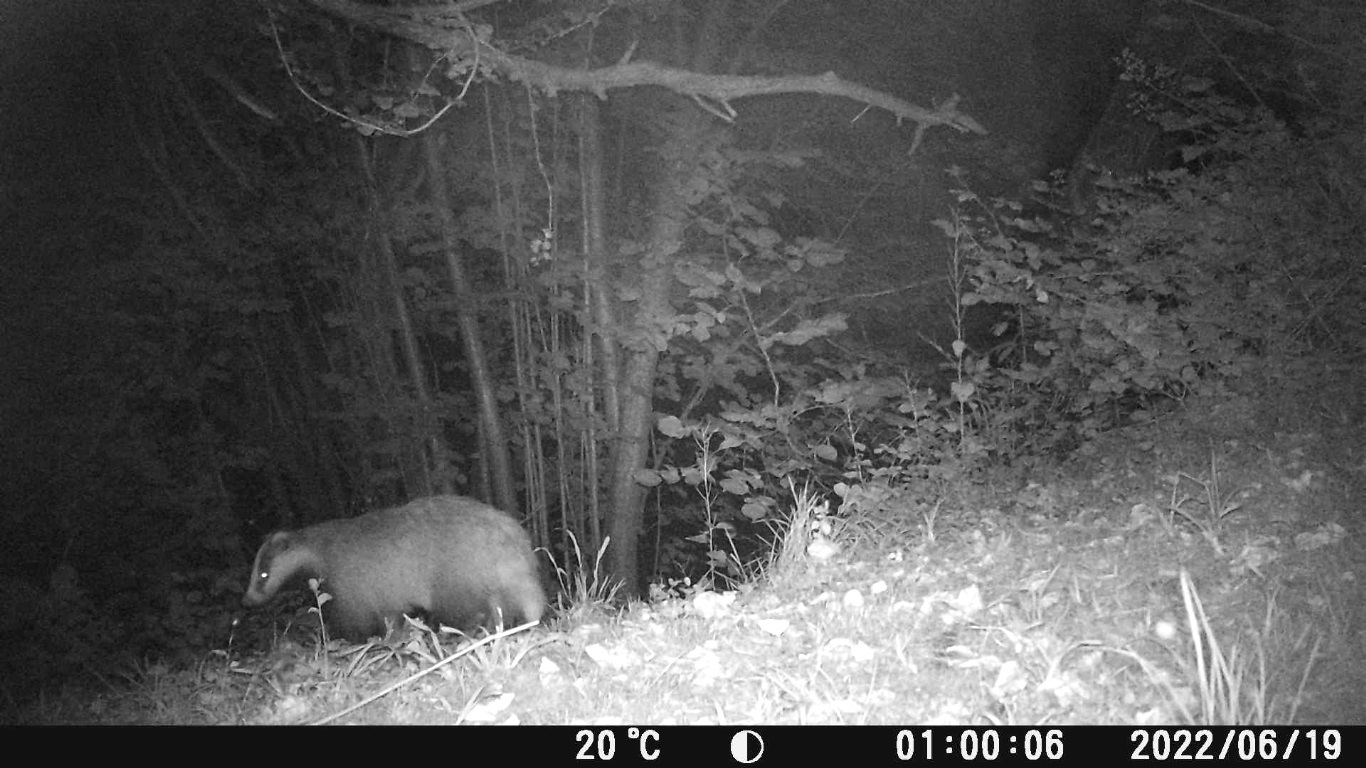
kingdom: Animalia
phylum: Chordata
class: Mammalia
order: Carnivora
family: Mustelidae
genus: Meles
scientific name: Meles meles
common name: Eurasian badger
